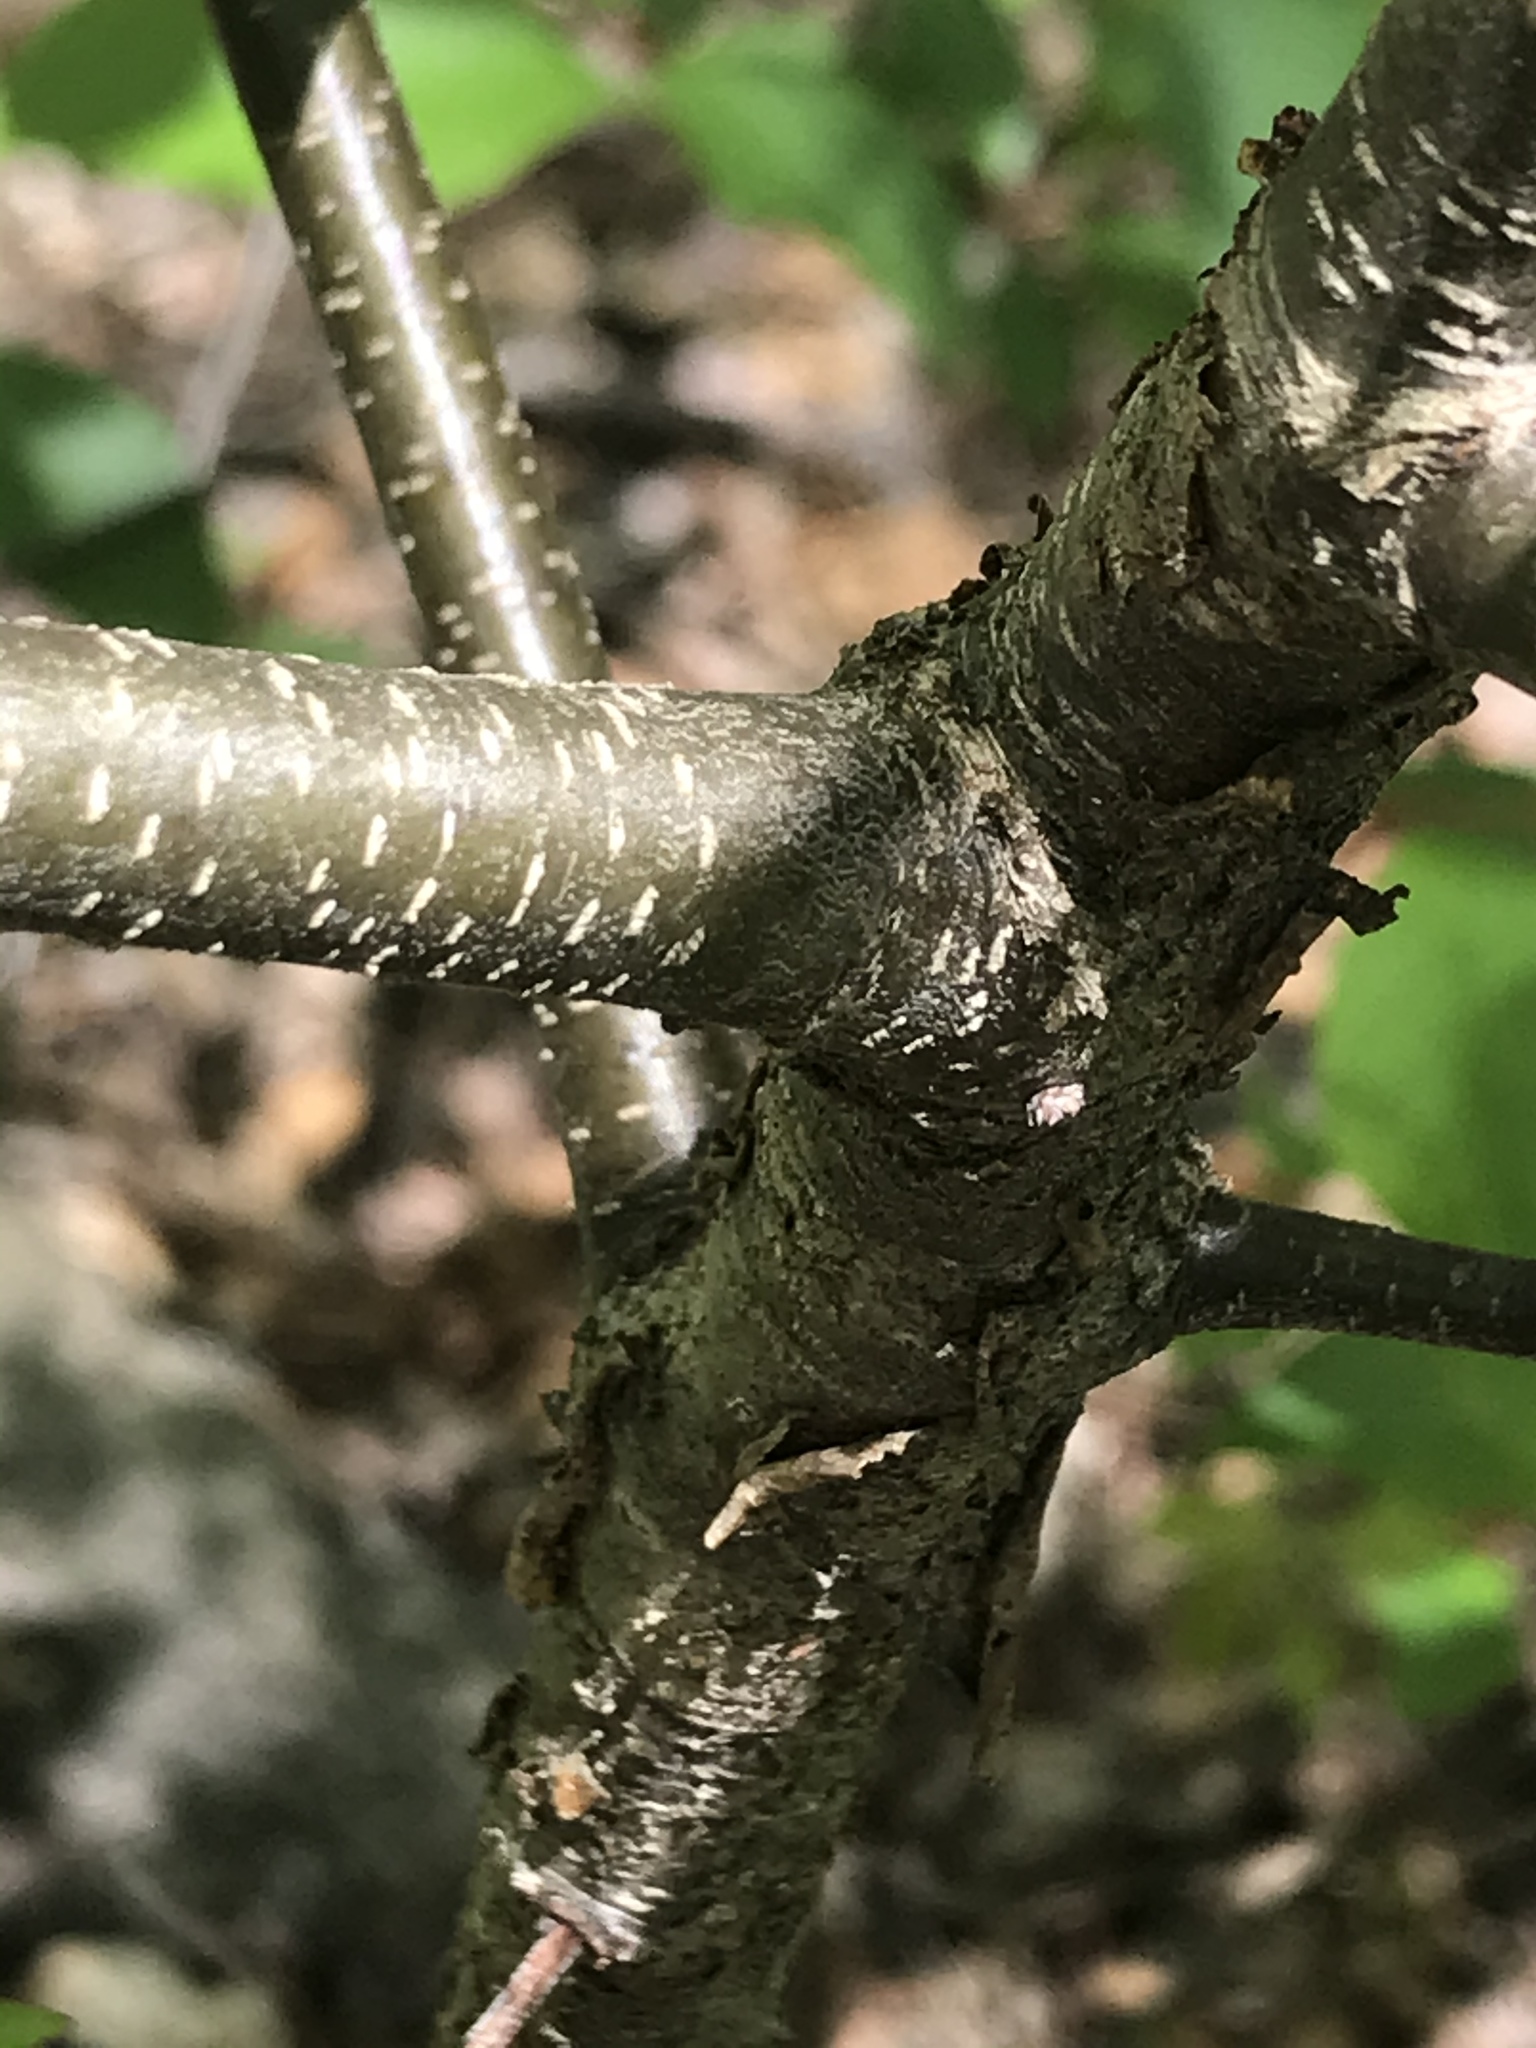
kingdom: Plantae
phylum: Tracheophyta
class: Magnoliopsida
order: Rosales
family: Rosaceae
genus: Prunus
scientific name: Prunus serotina
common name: Black cherry
